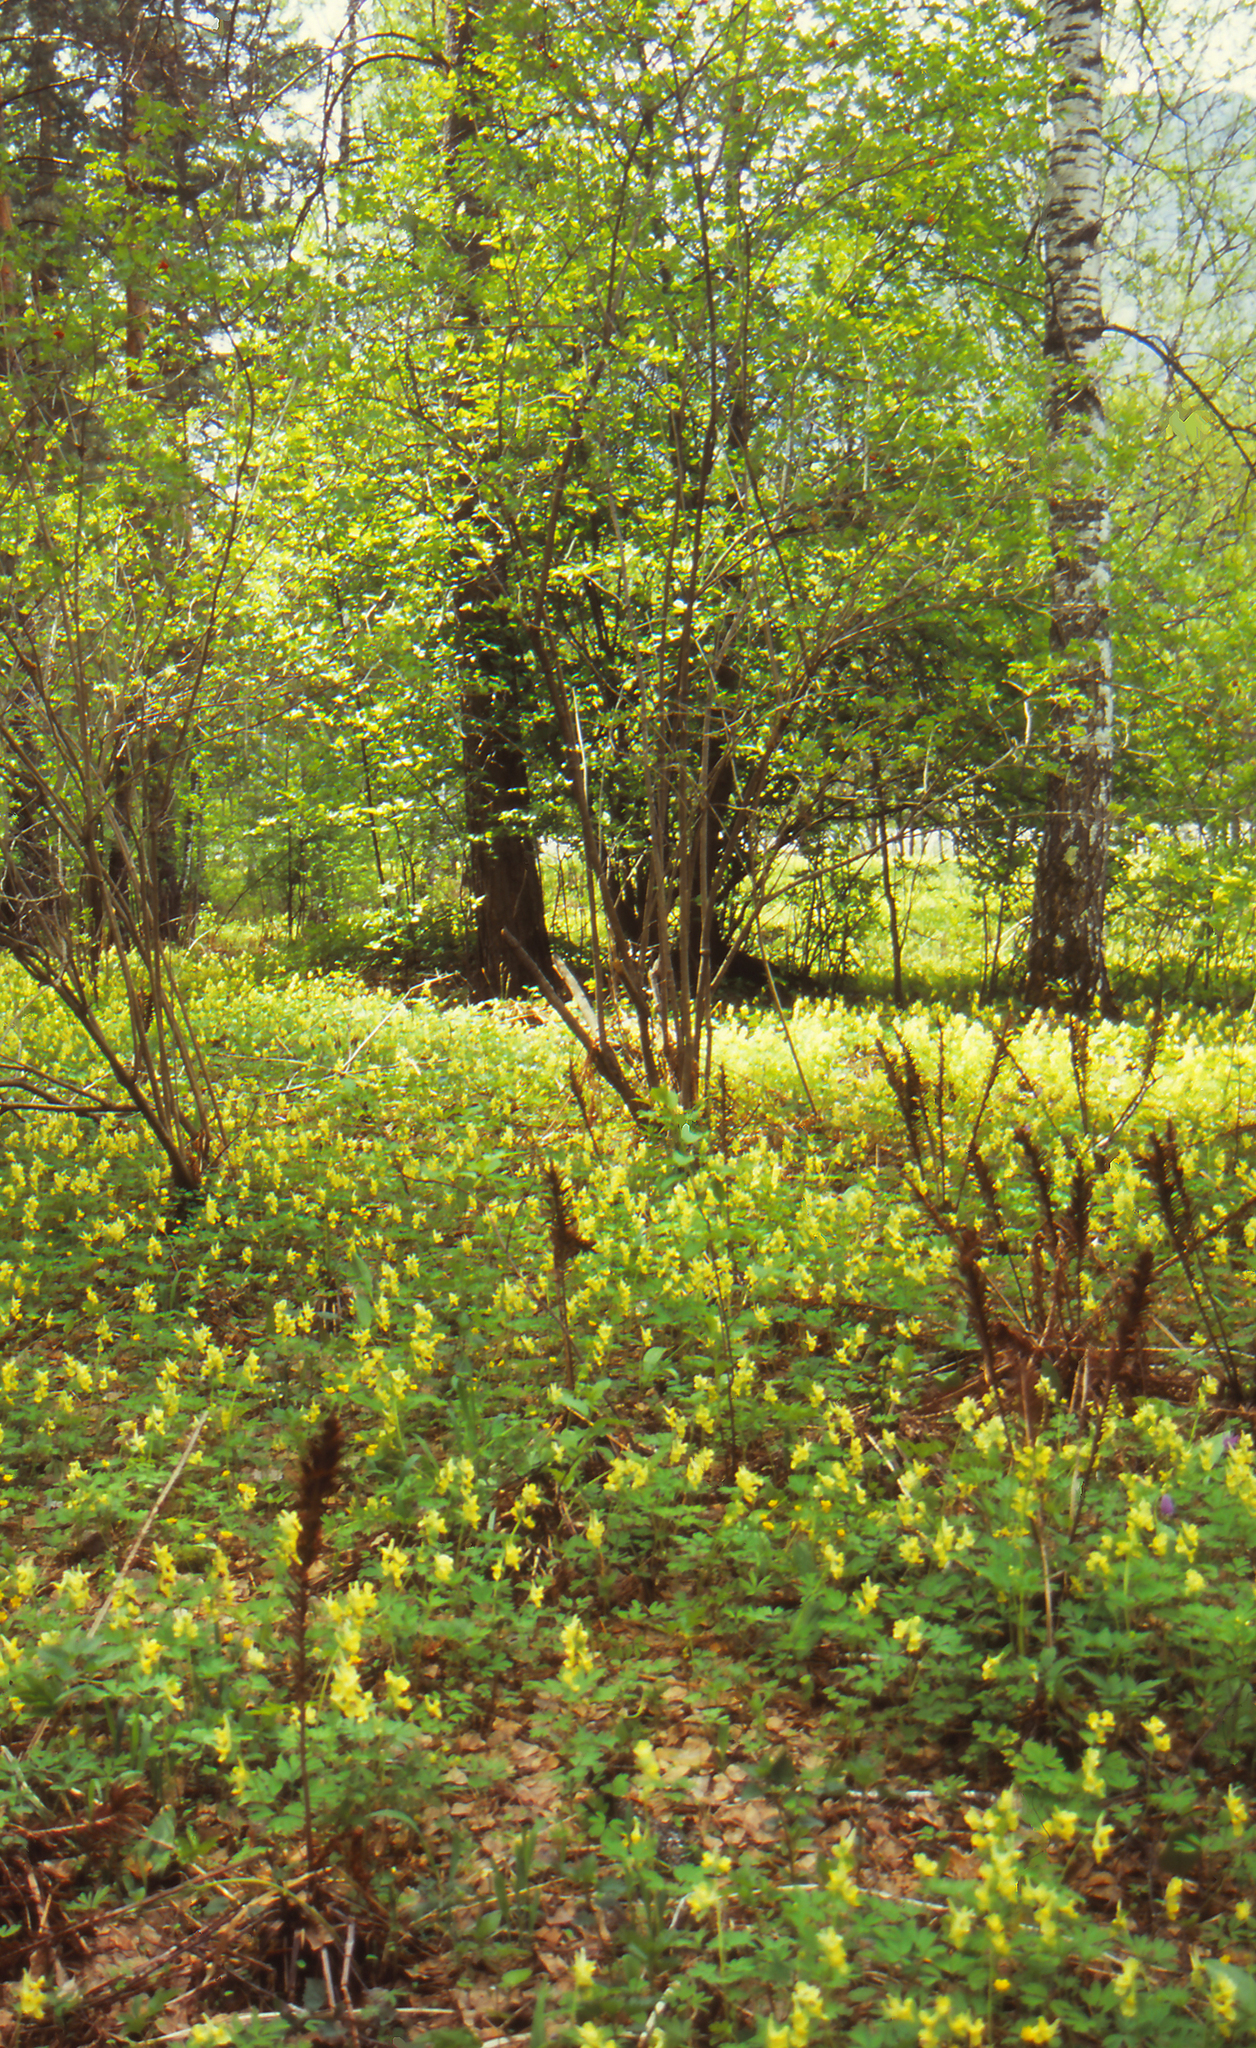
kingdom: Plantae
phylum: Tracheophyta
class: Magnoliopsida
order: Ranunculales
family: Papaveraceae
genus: Corydalis
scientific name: Corydalis bracteata
